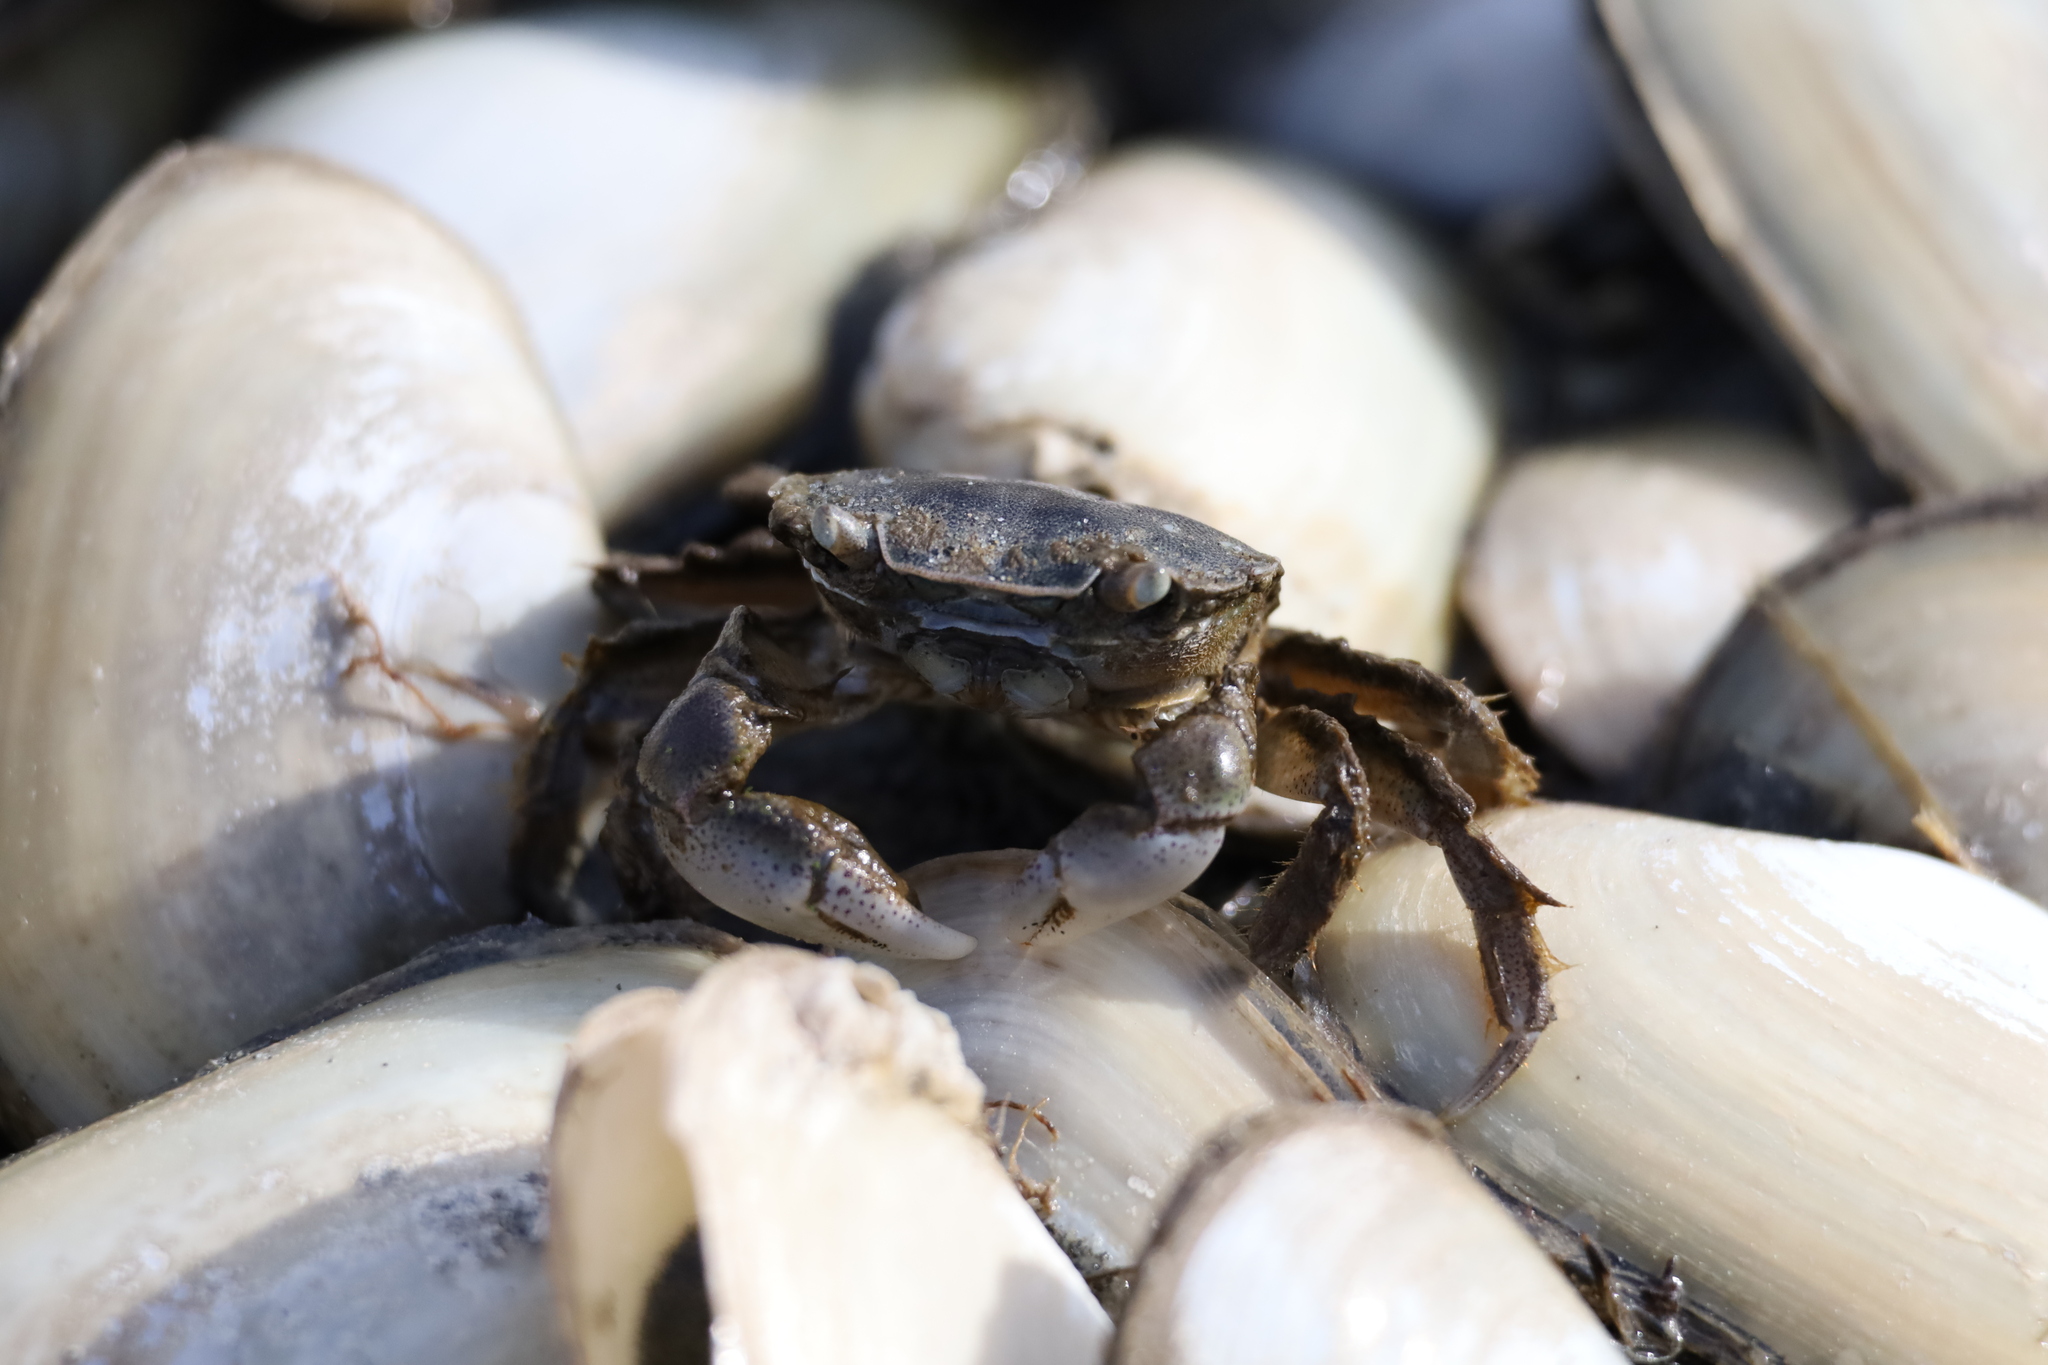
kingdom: Animalia
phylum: Arthropoda
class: Malacostraca
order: Decapoda
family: Varunidae
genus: Hemigrapsus
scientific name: Hemigrapsus crenulatus
